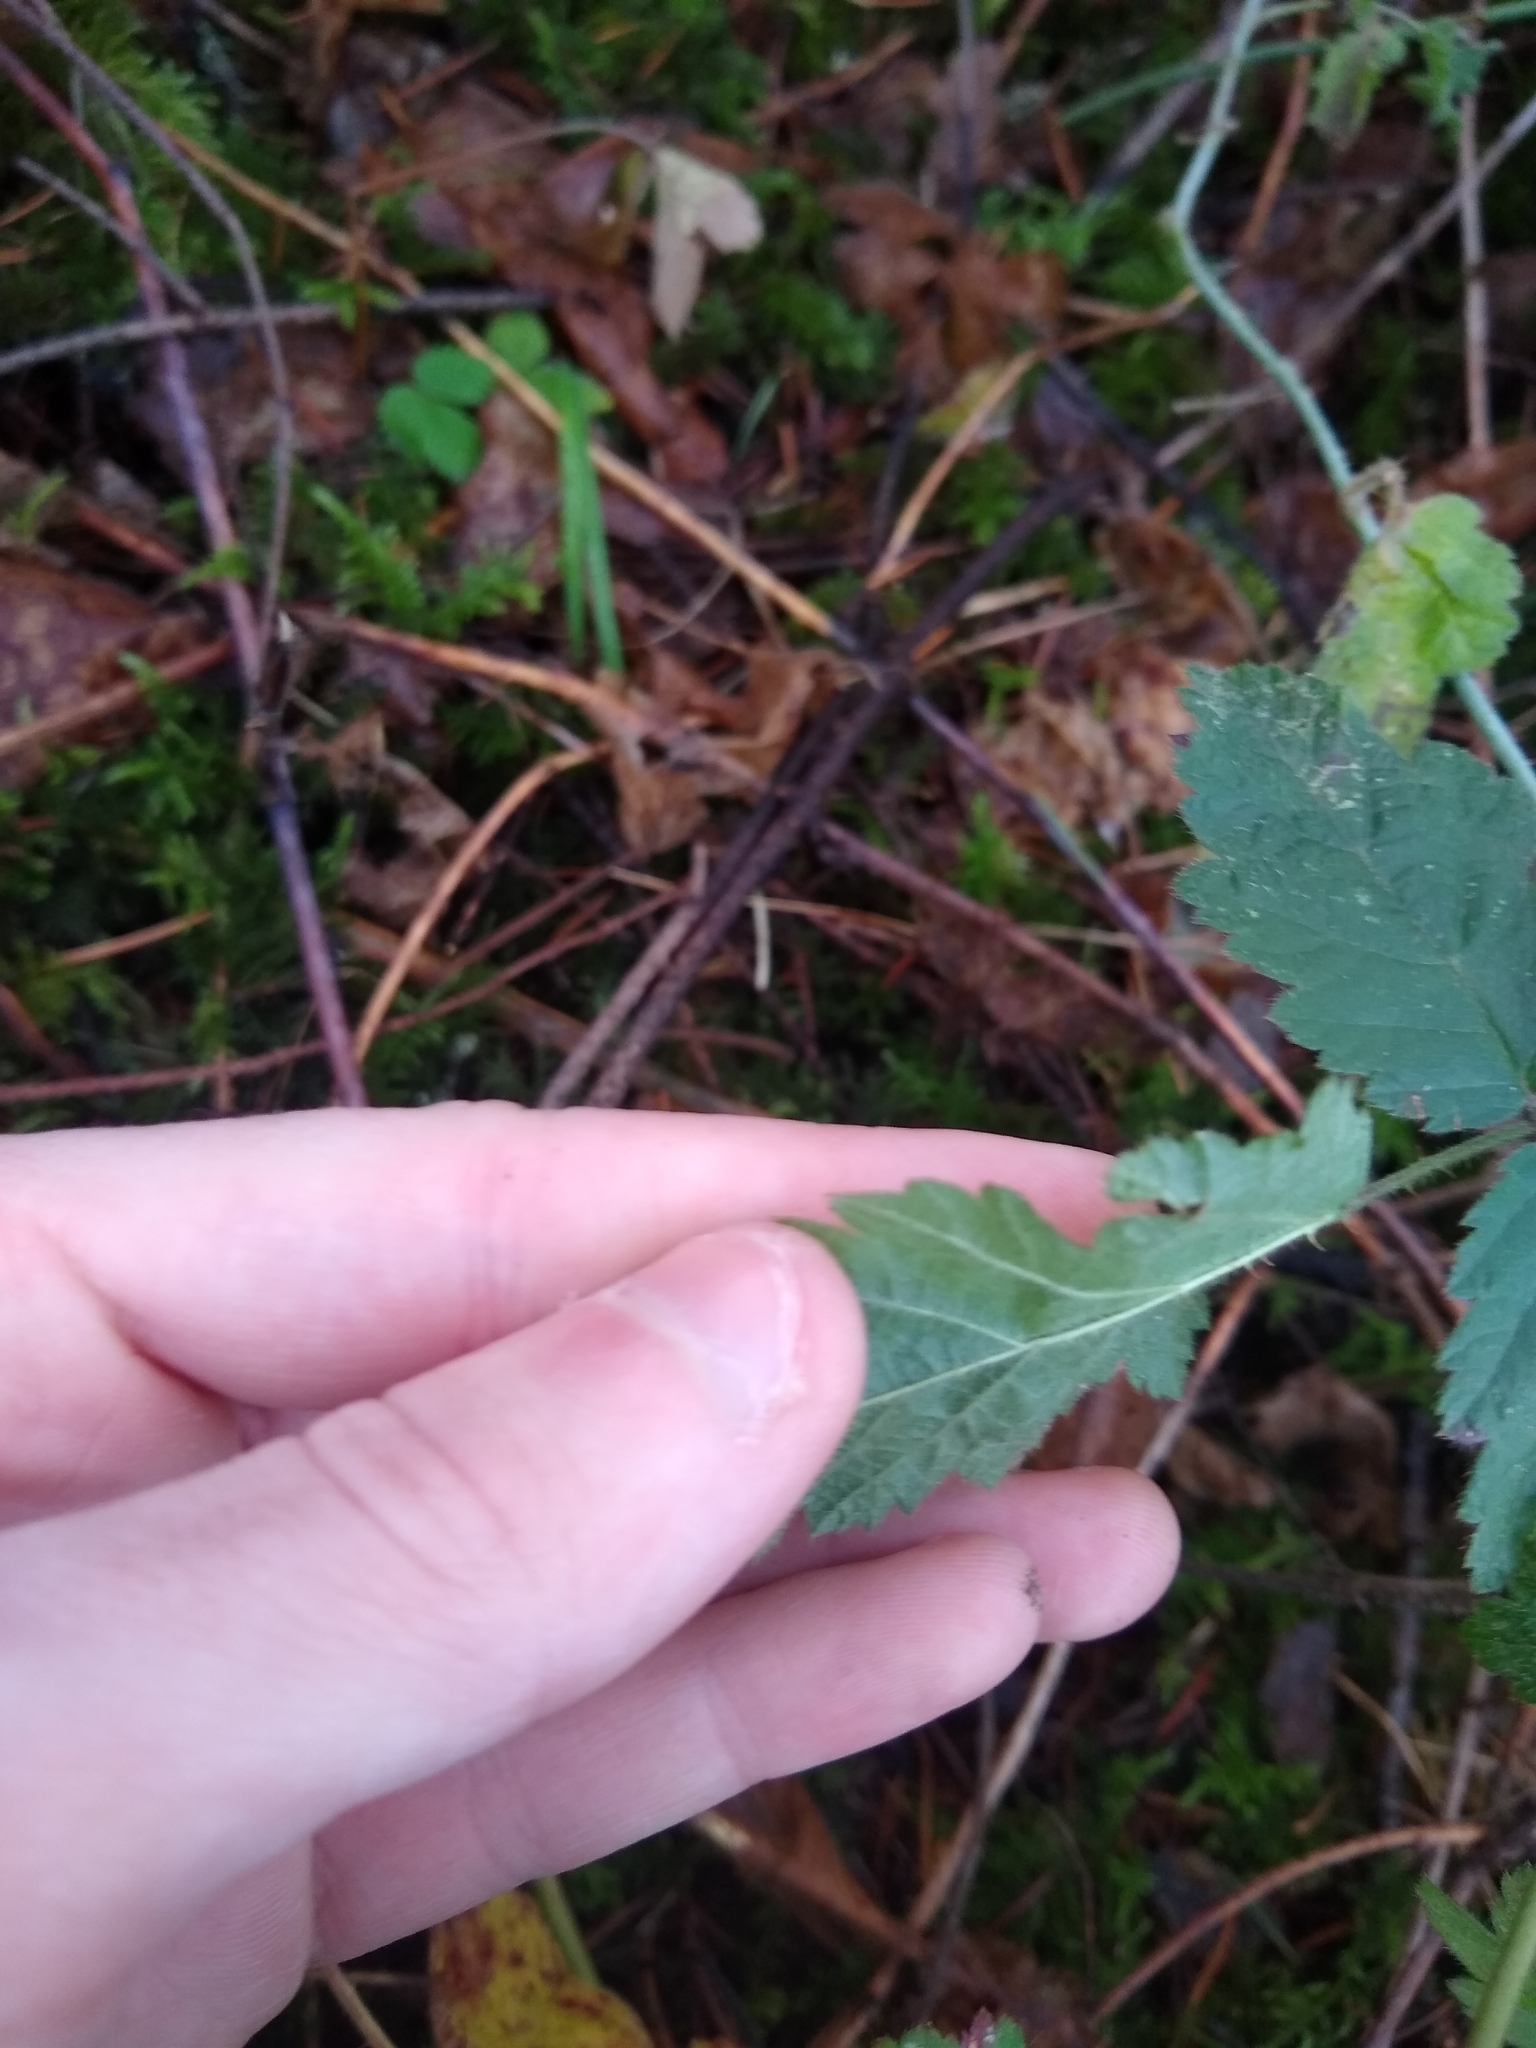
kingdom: Plantae
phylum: Tracheophyta
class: Magnoliopsida
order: Rosales
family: Rosaceae
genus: Rubus
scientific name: Rubus ursinus
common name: Pacific blackberry
